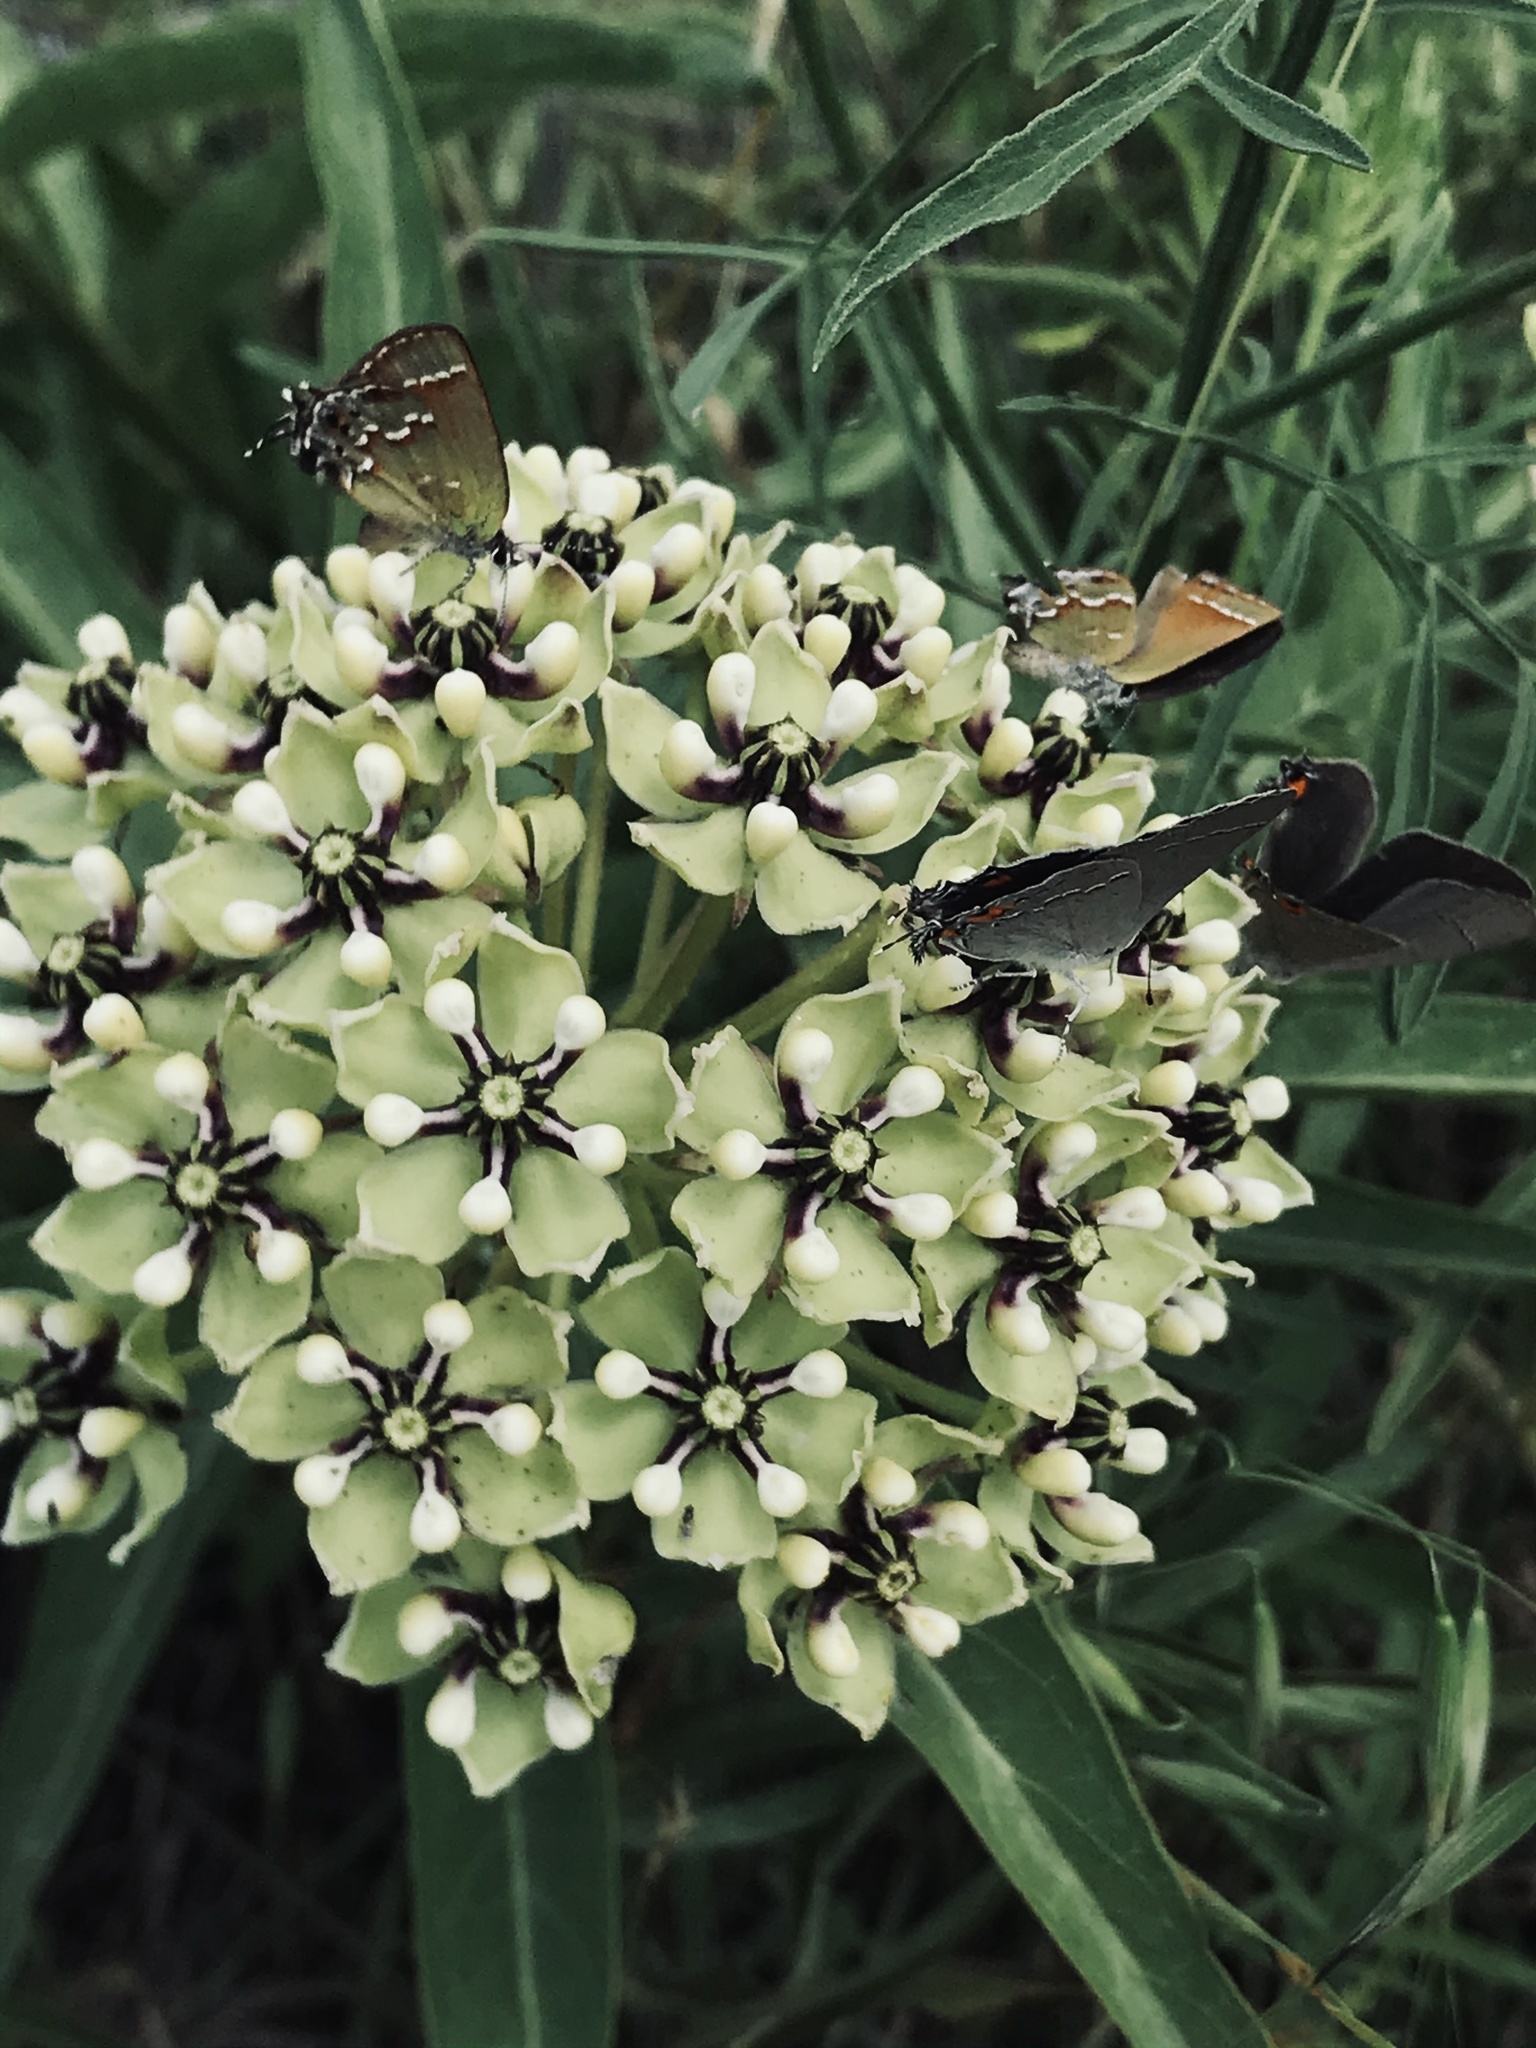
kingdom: Animalia
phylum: Arthropoda
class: Insecta
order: Lepidoptera
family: Lycaenidae
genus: Mitoura
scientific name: Mitoura gryneus
